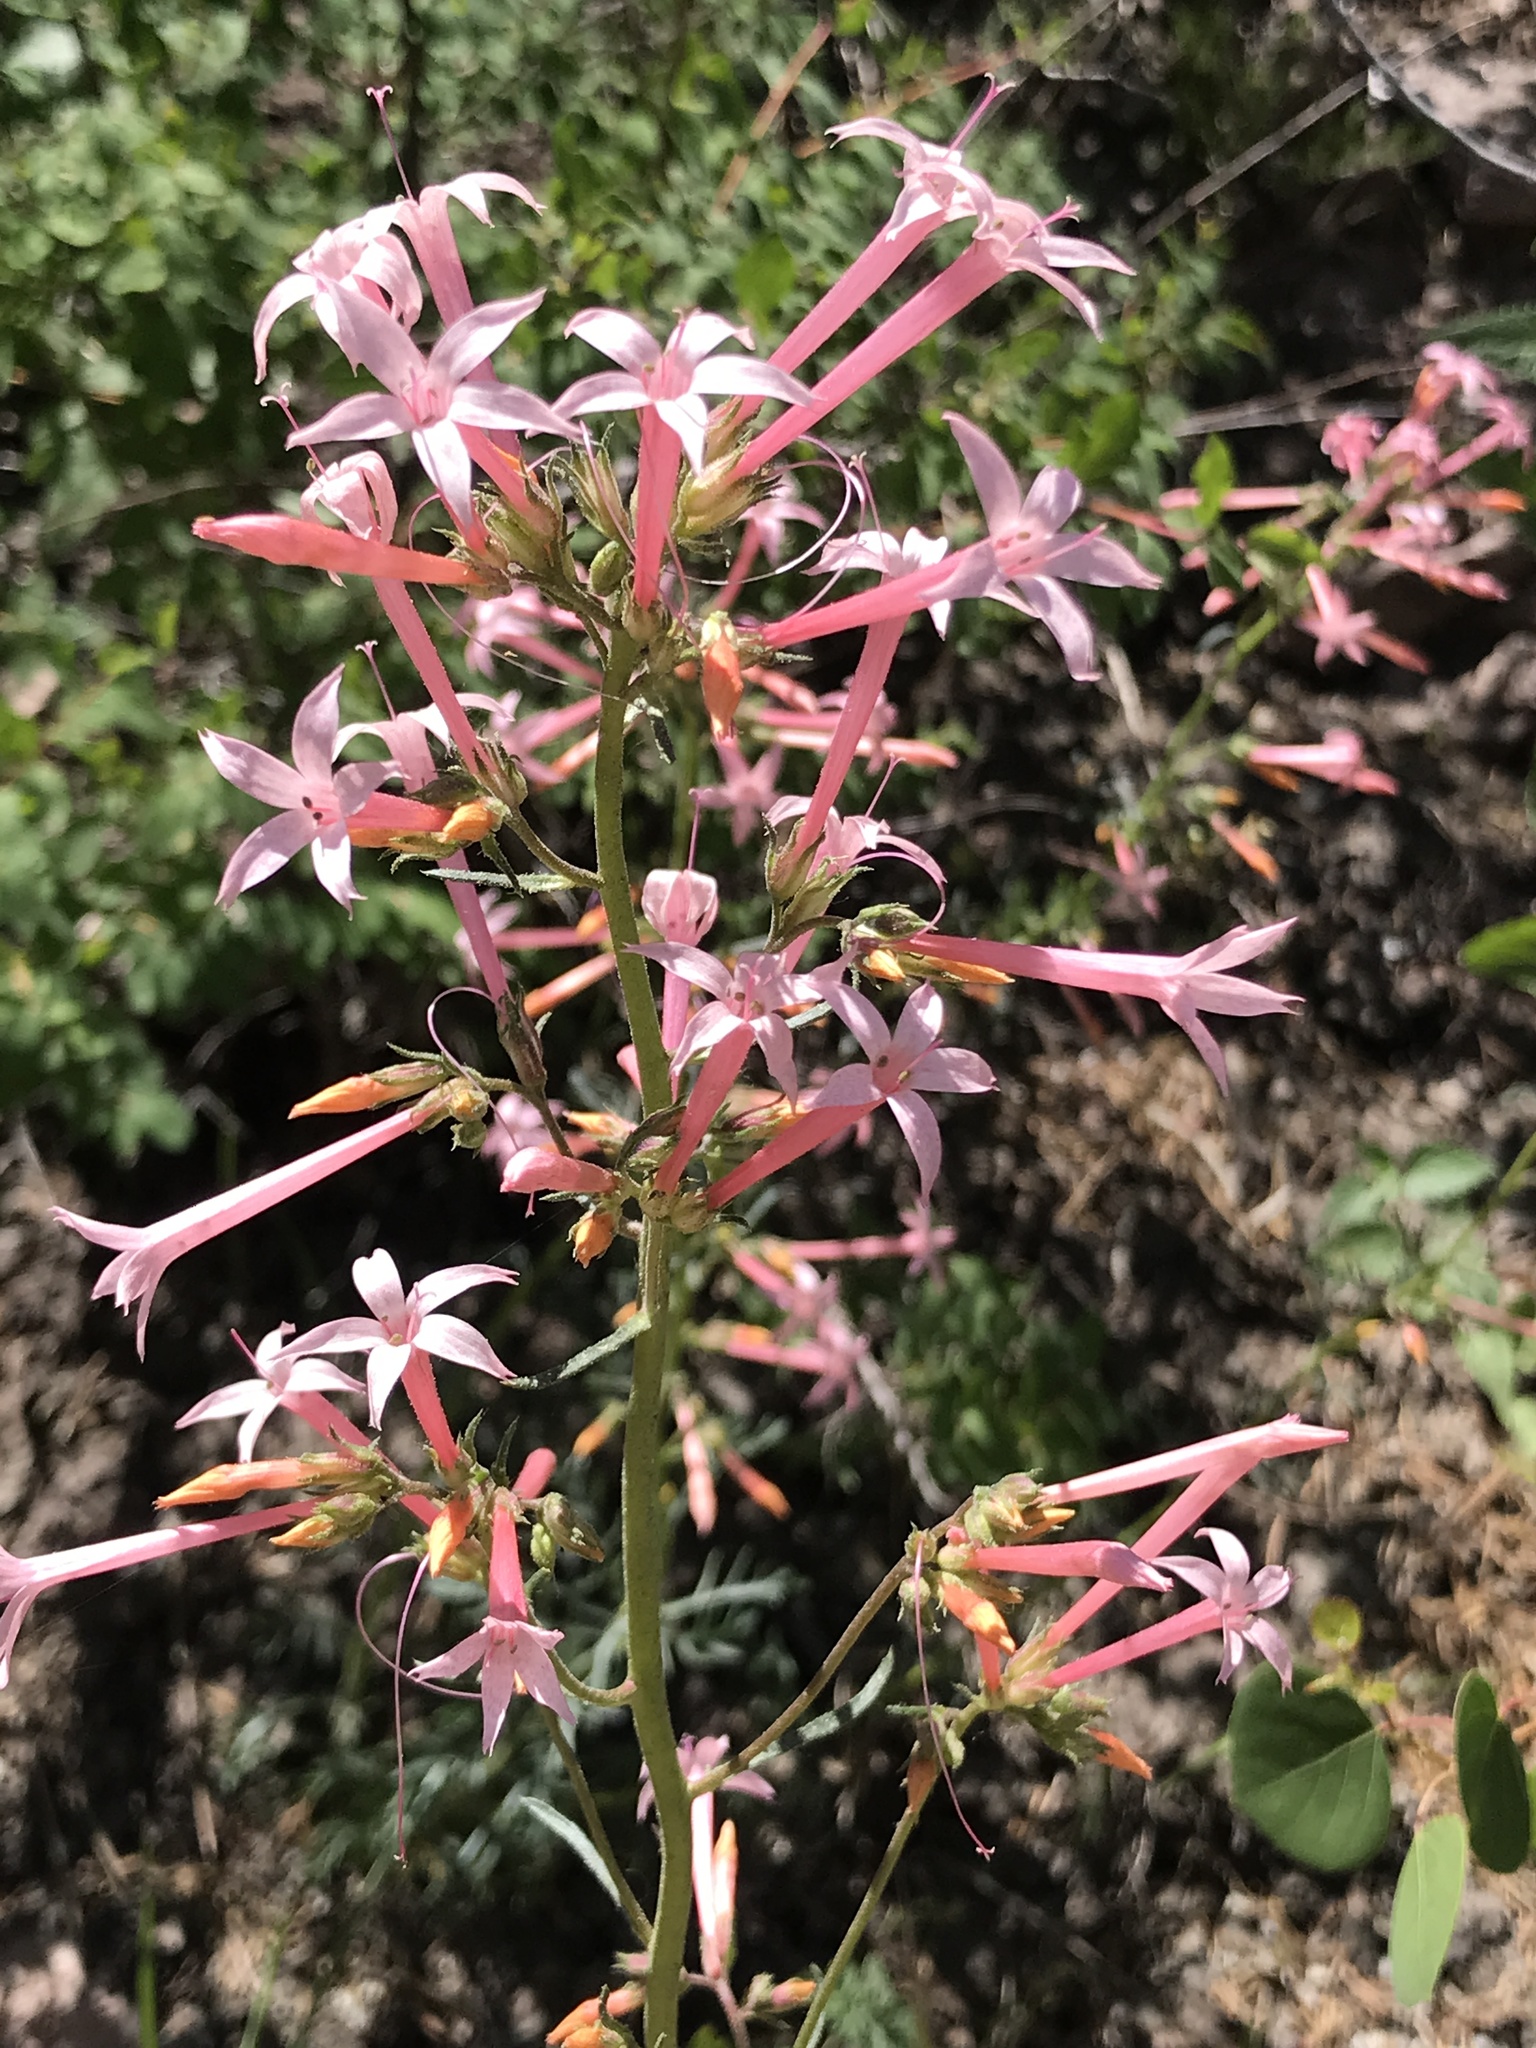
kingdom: Plantae
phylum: Tracheophyta
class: Magnoliopsida
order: Ericales
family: Polemoniaceae
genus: Ipomopsis
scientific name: Ipomopsis tenuituba
